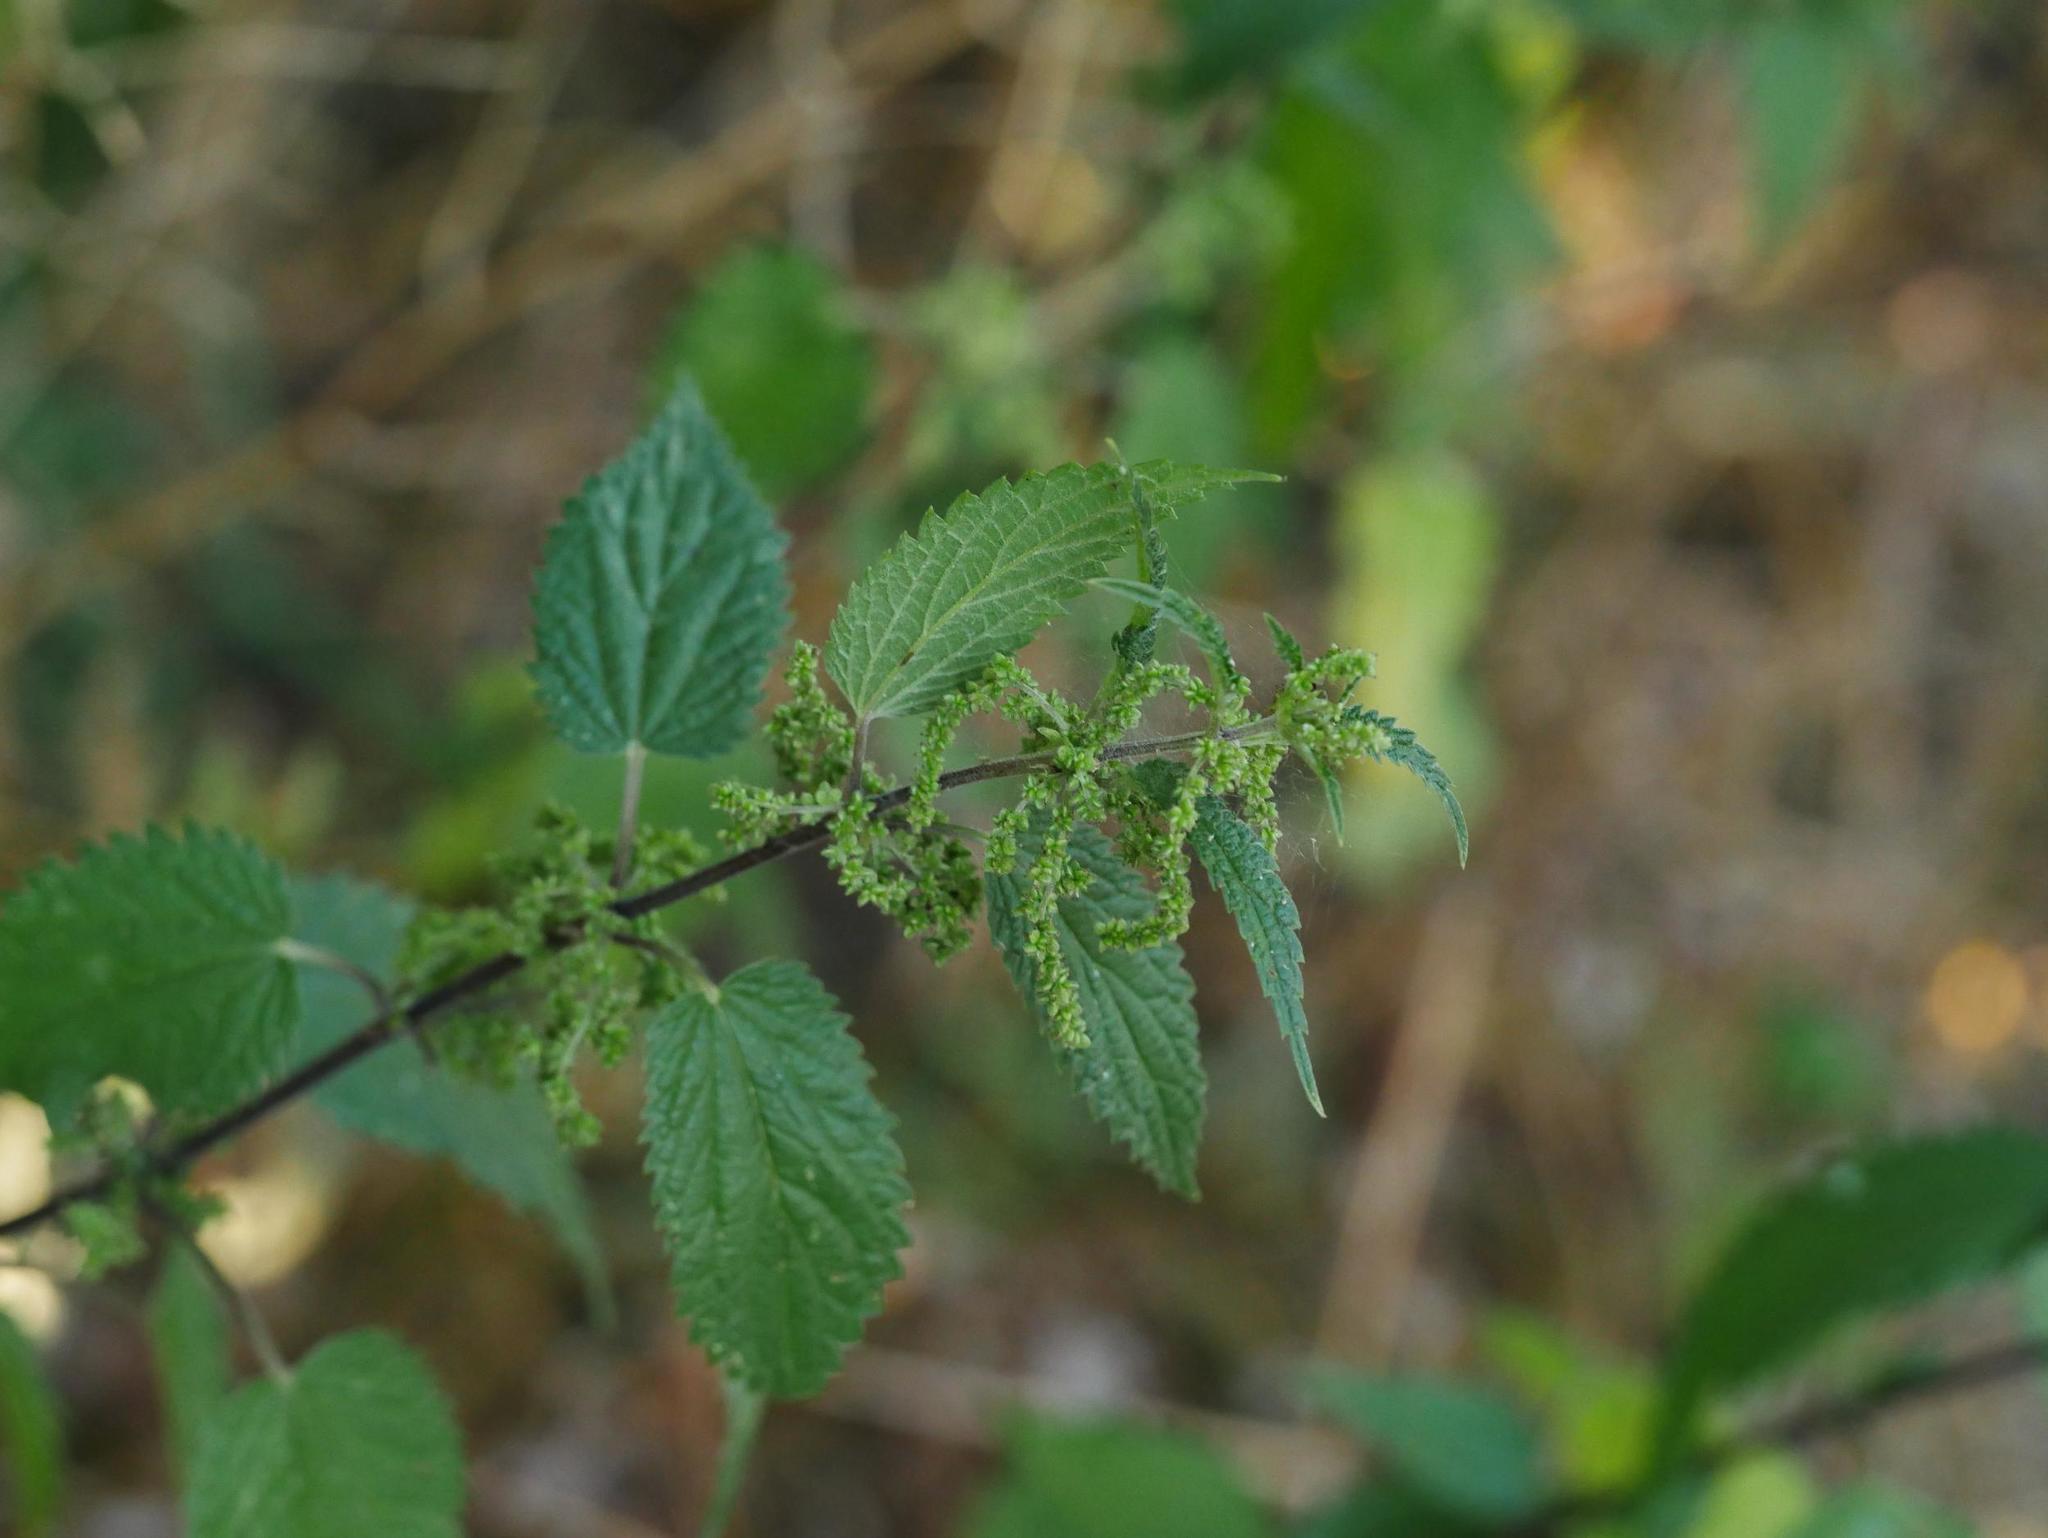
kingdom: Plantae
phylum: Tracheophyta
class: Magnoliopsida
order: Rosales
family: Urticaceae
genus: Urtica
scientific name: Urtica dioica
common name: Common nettle
